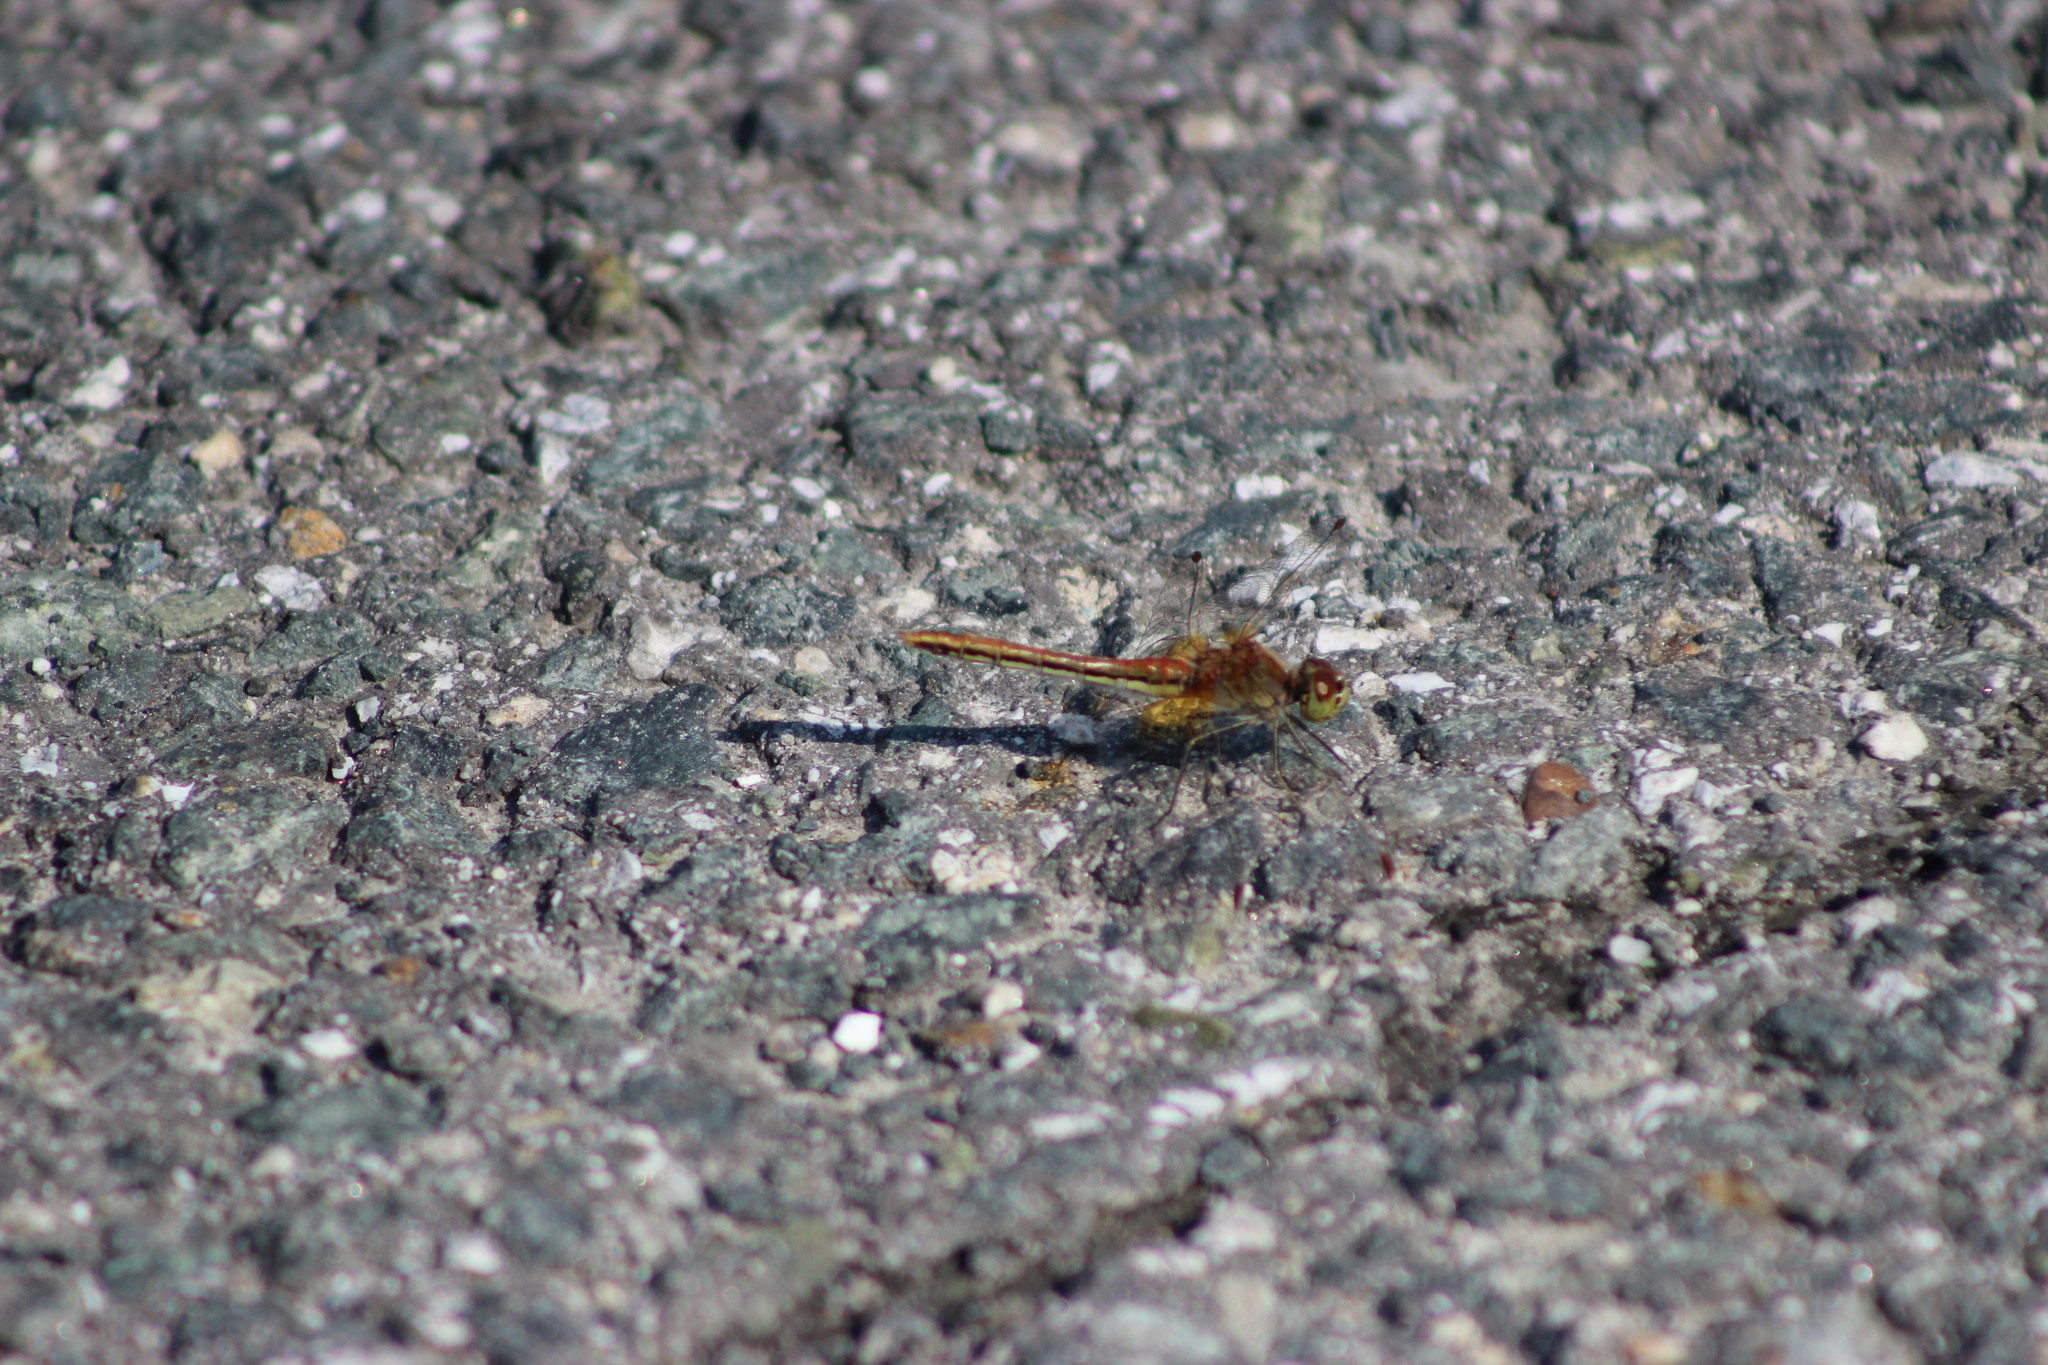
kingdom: Animalia
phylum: Arthropoda
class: Insecta
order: Odonata
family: Libellulidae
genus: Sympetrum
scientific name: Sympetrum flaveolum
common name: Yellow-winged darter
